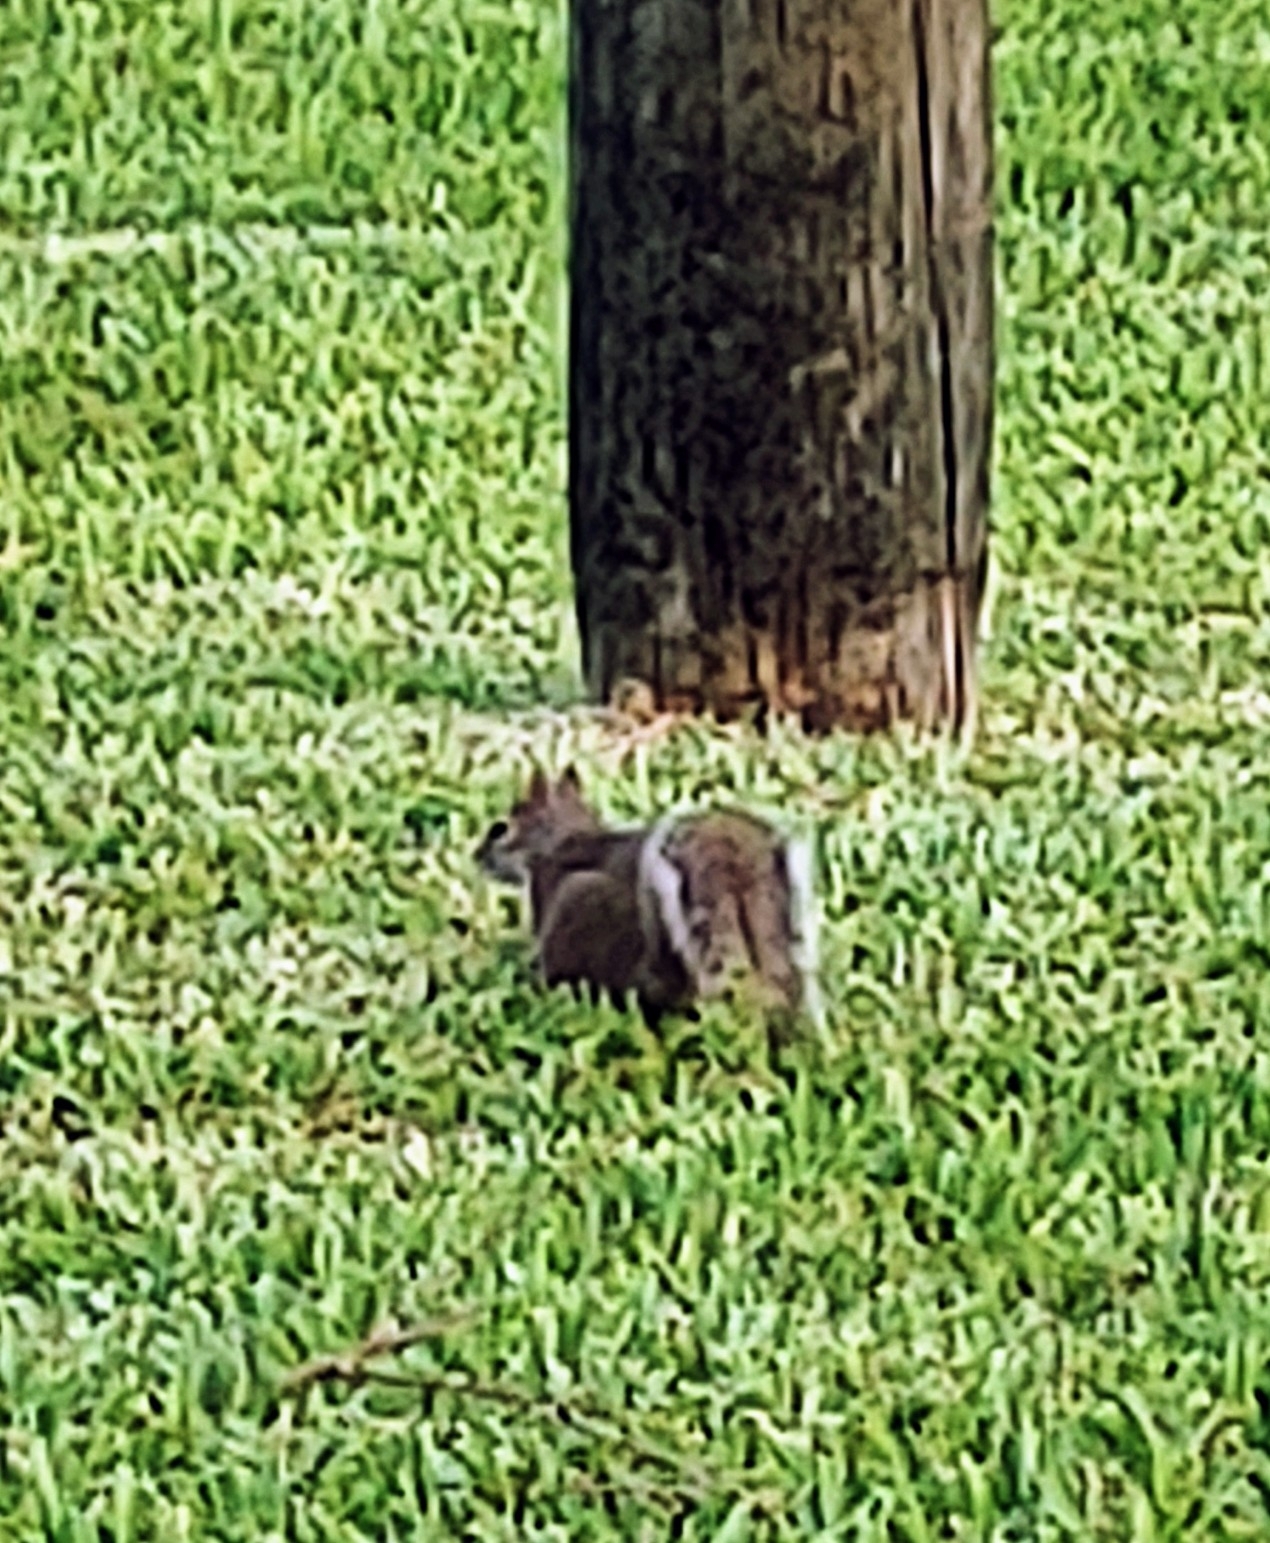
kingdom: Animalia
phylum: Chordata
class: Mammalia
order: Rodentia
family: Sciuridae
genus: Sciurus
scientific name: Sciurus carolinensis
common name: Eastern gray squirrel
